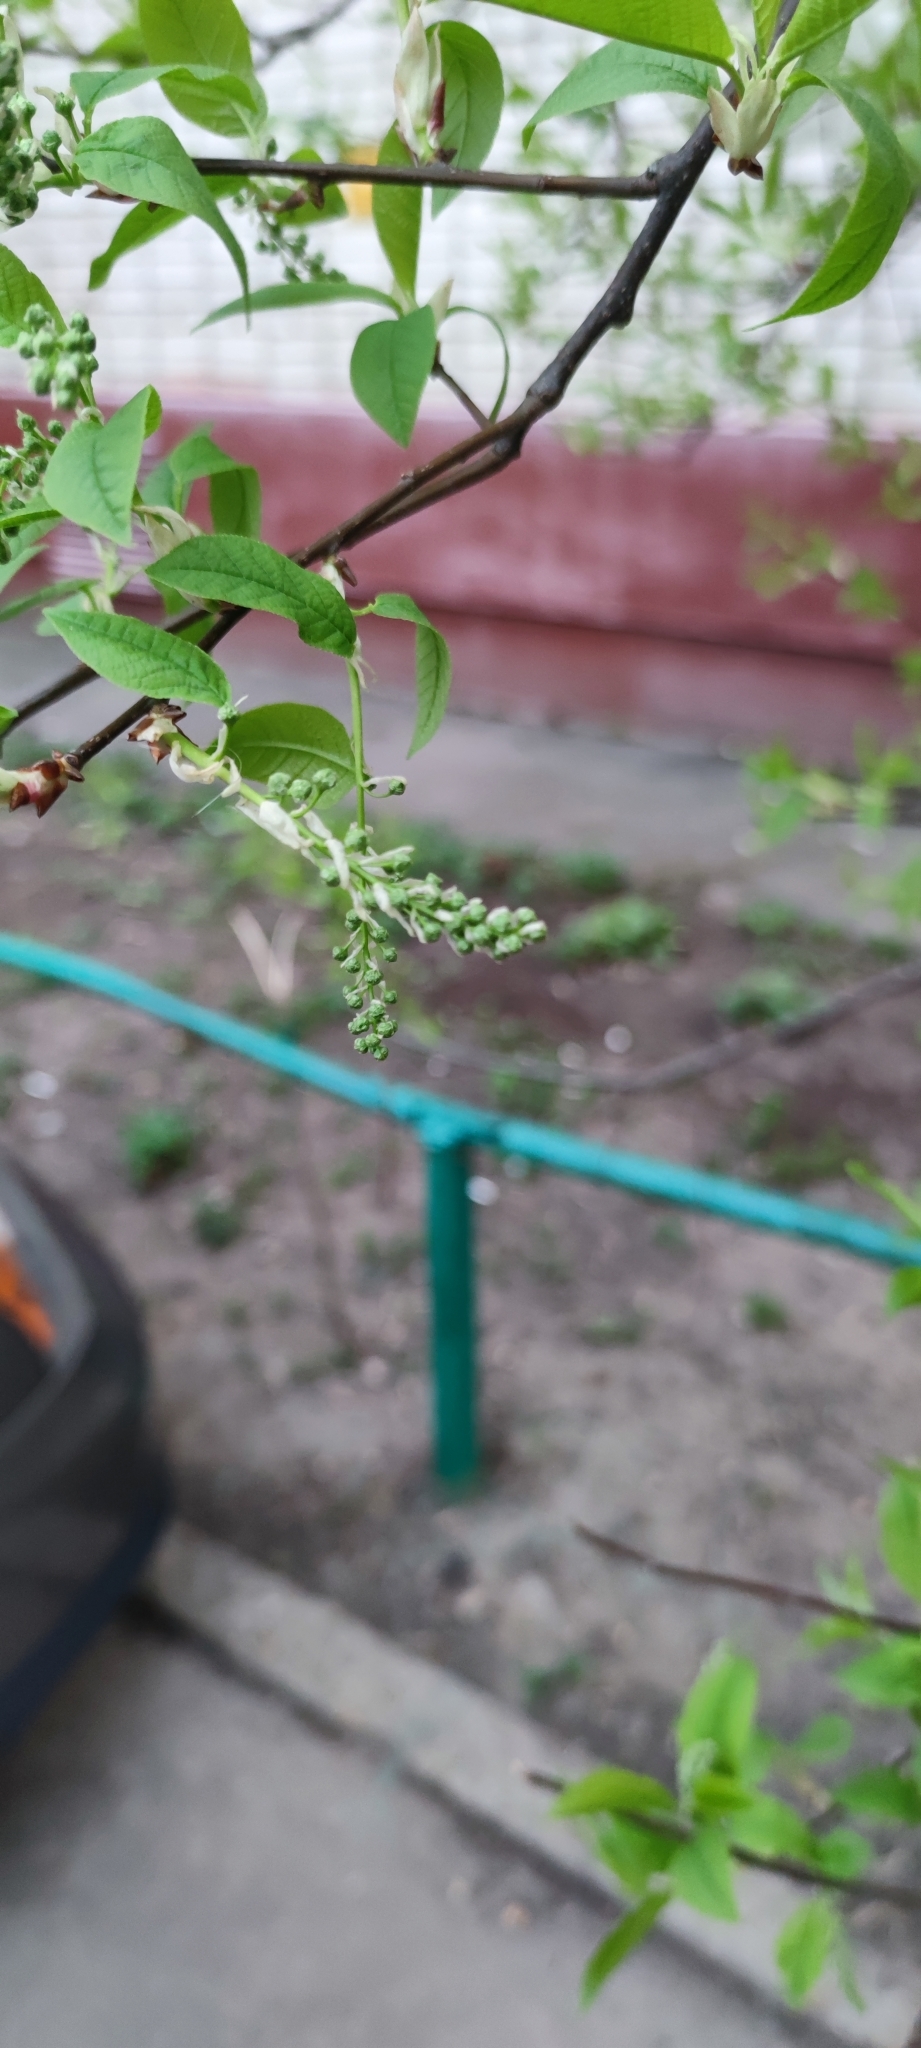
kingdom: Plantae
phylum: Tracheophyta
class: Magnoliopsida
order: Rosales
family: Rosaceae
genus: Prunus
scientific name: Prunus padus
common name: Bird cherry
